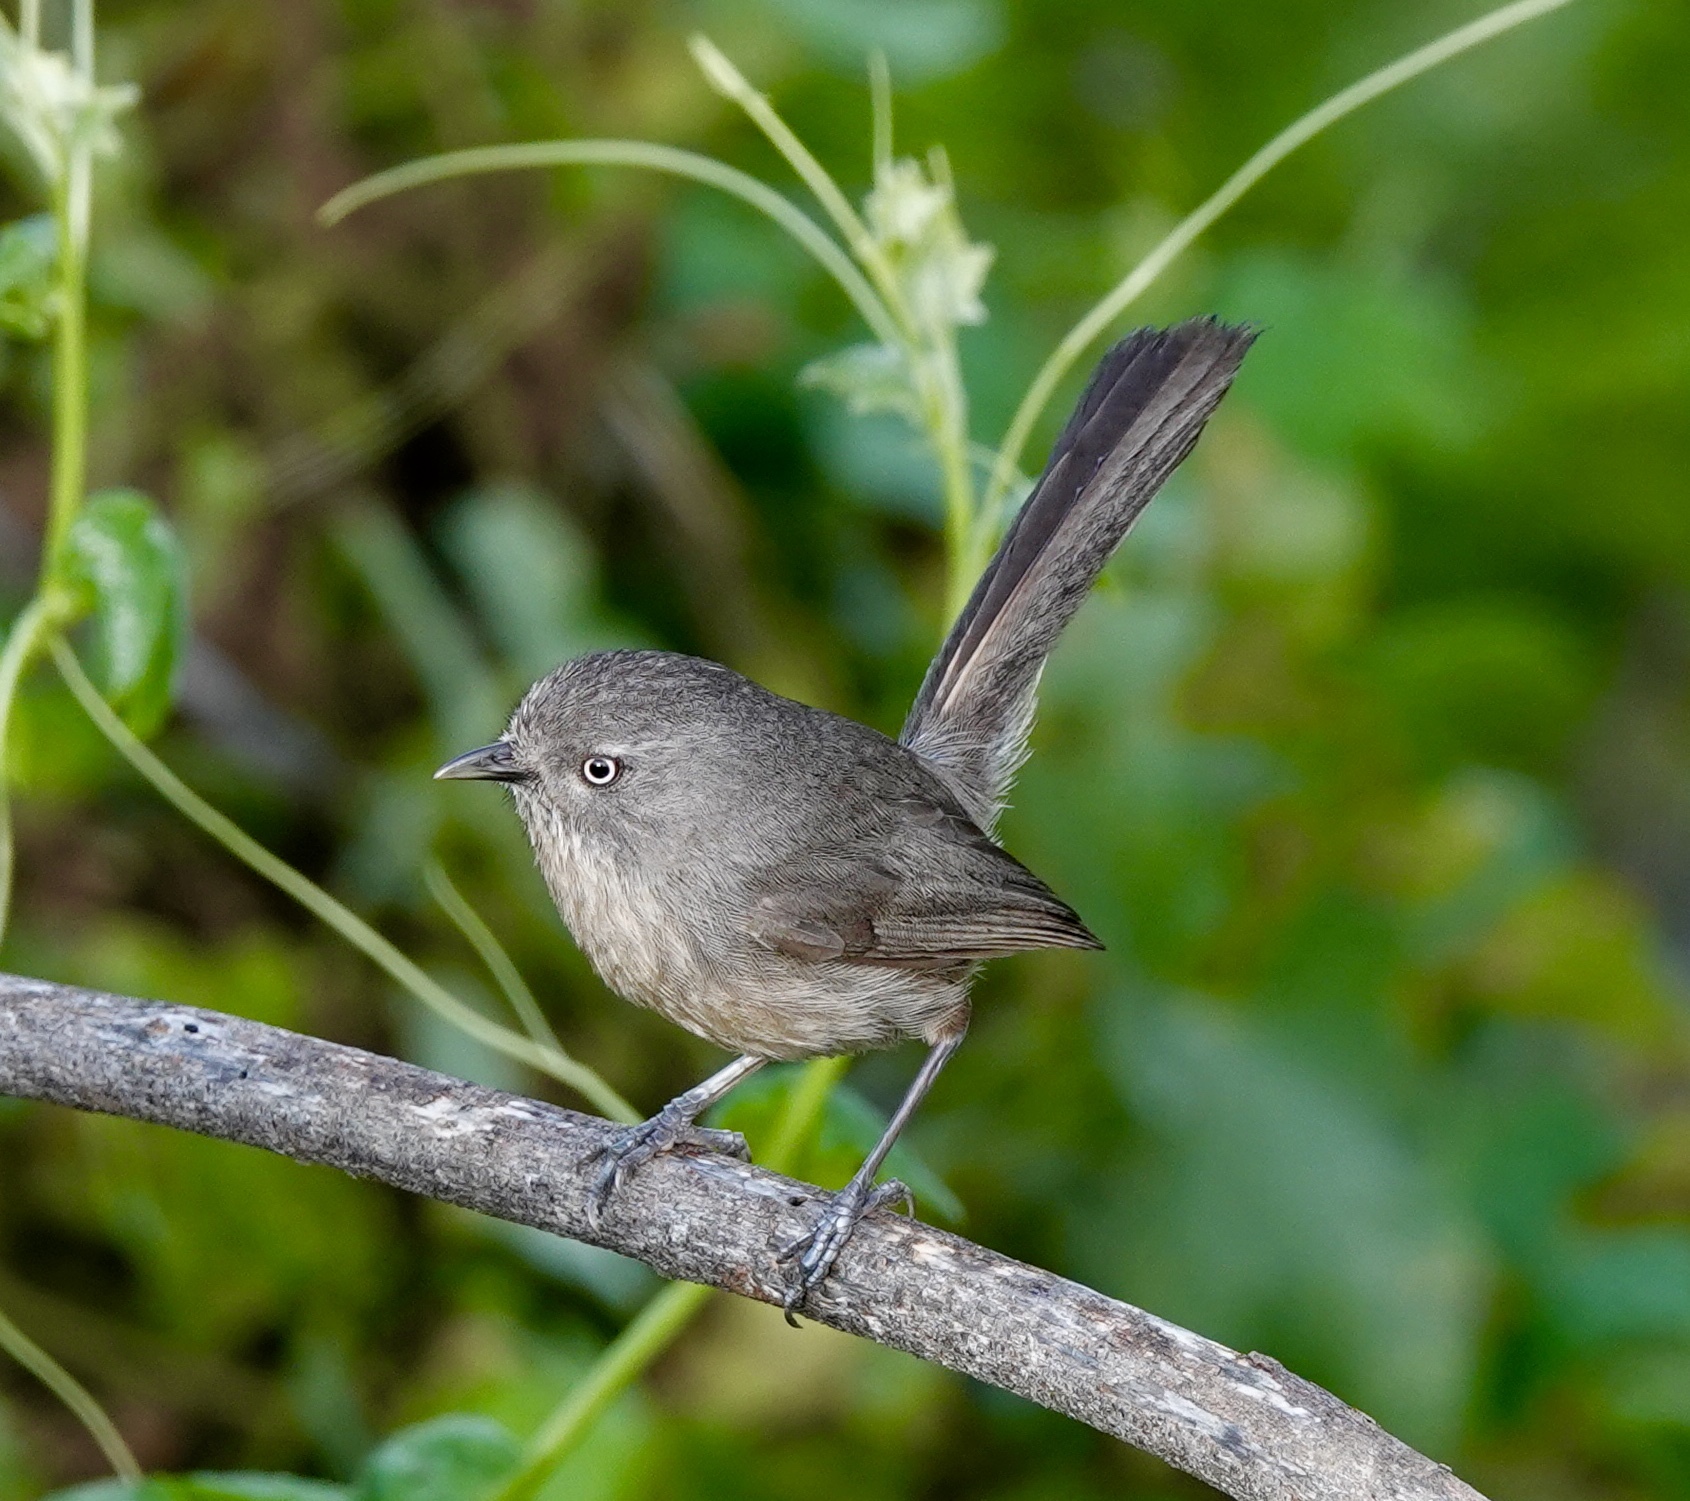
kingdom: Animalia
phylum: Chordata
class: Aves
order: Passeriformes
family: Sylviidae
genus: Chamaea
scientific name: Chamaea fasciata
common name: Wrentit
